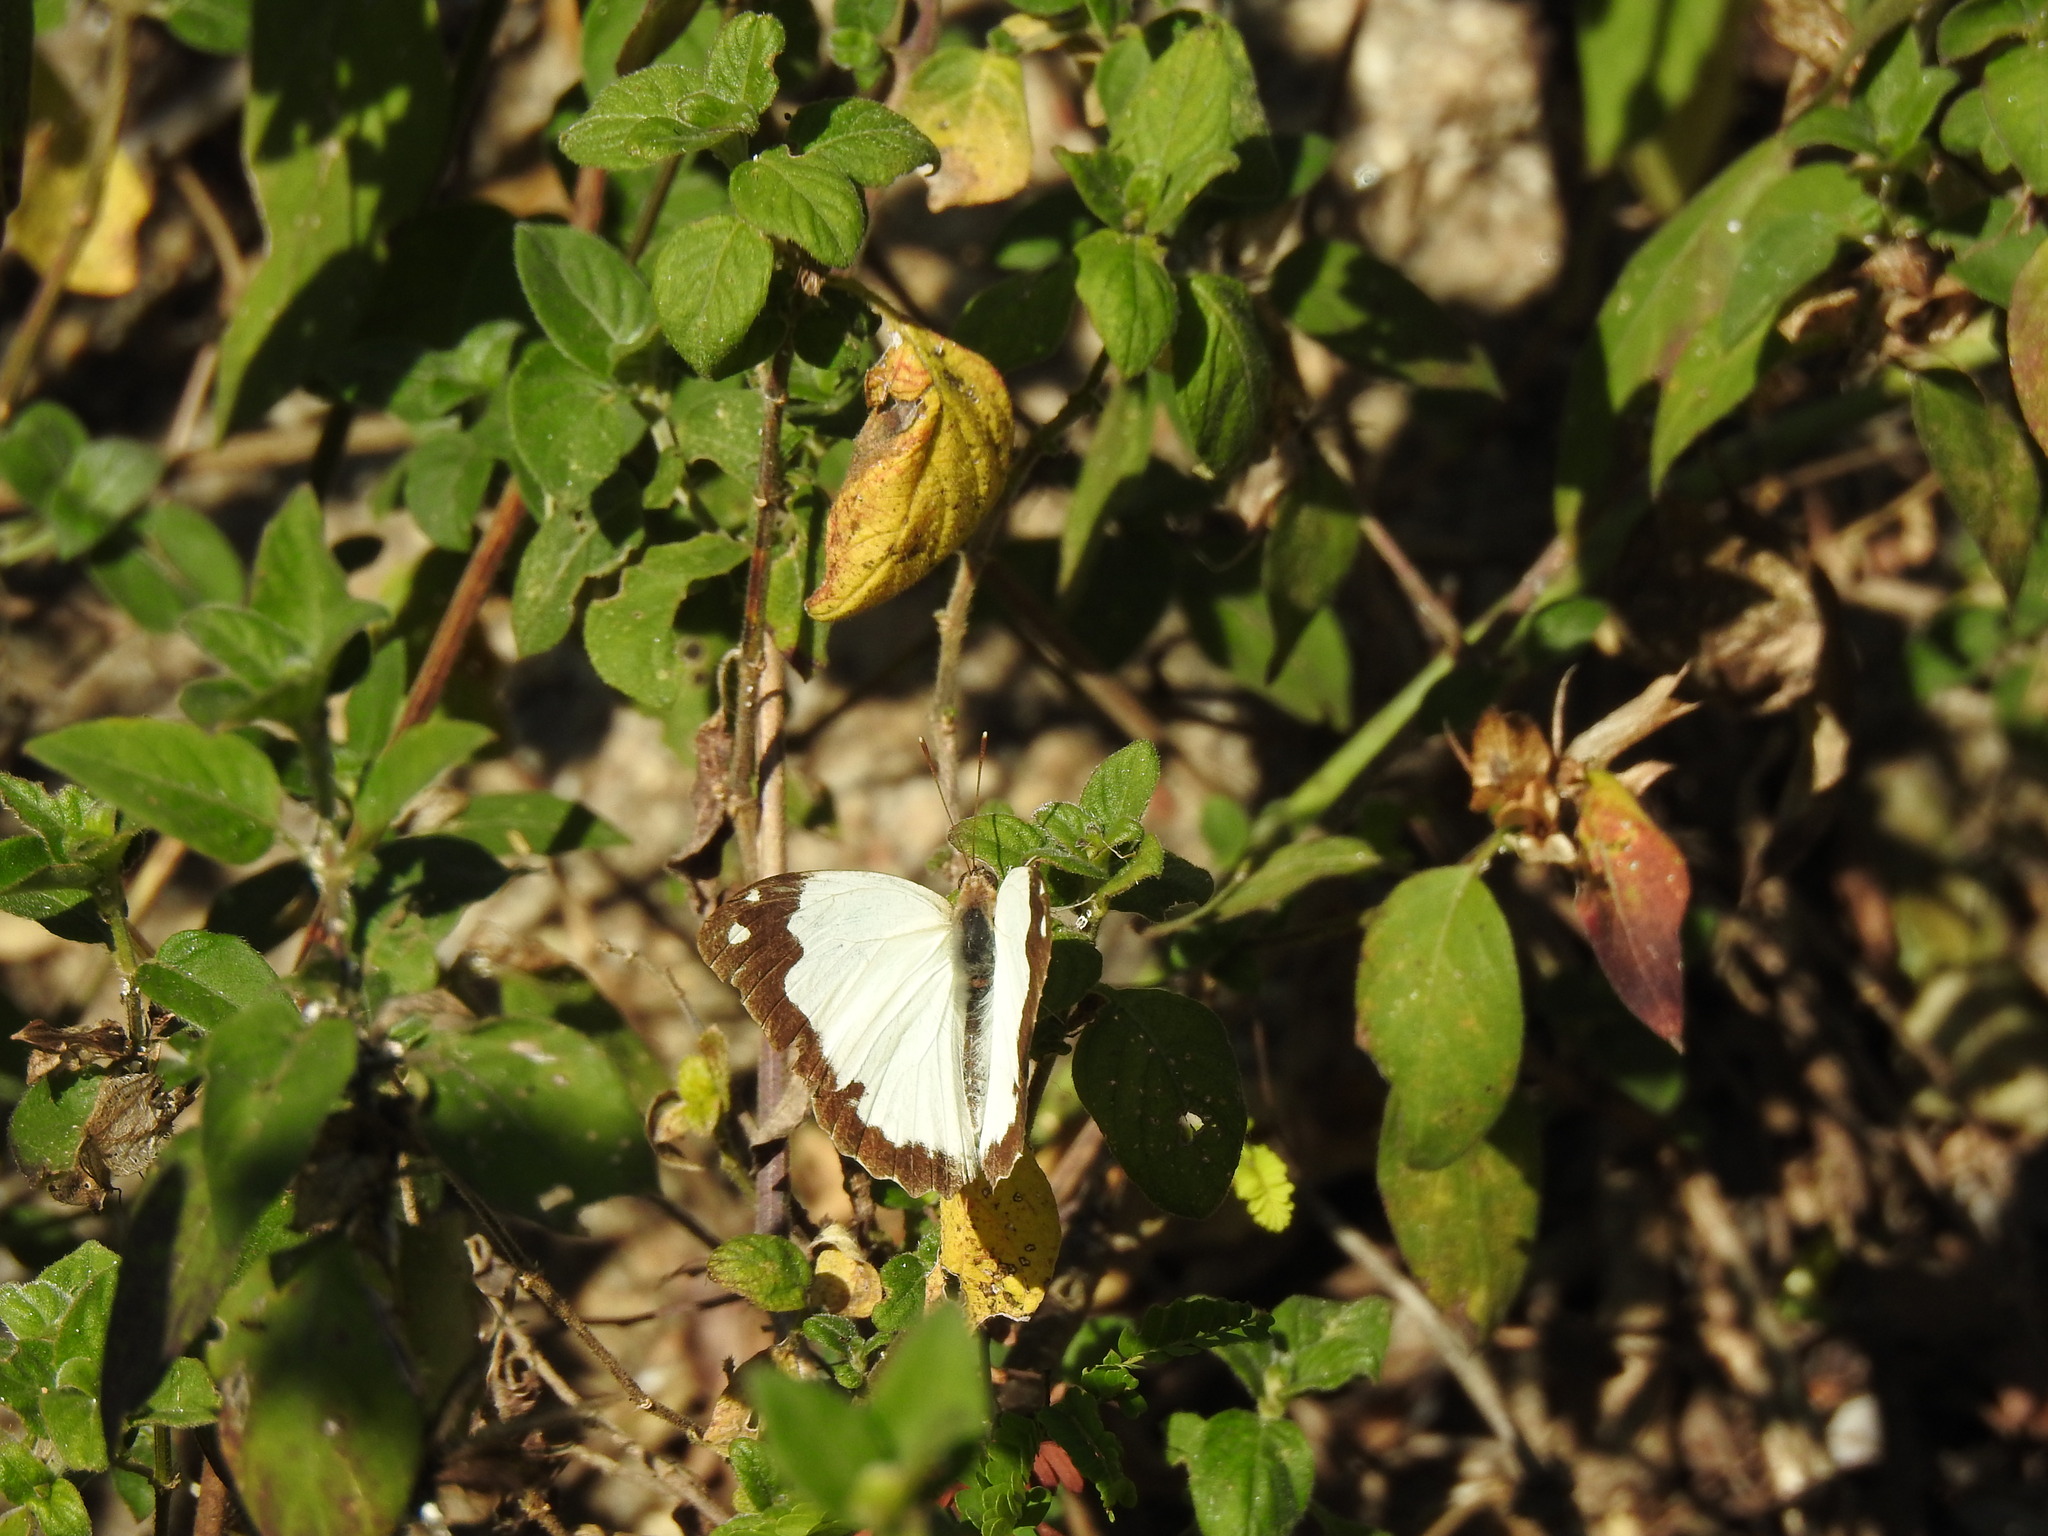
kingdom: Animalia
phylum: Arthropoda
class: Insecta
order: Lepidoptera
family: Pieridae
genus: Eronia
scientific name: Eronia cleodora
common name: Vine-leaf vagrant
